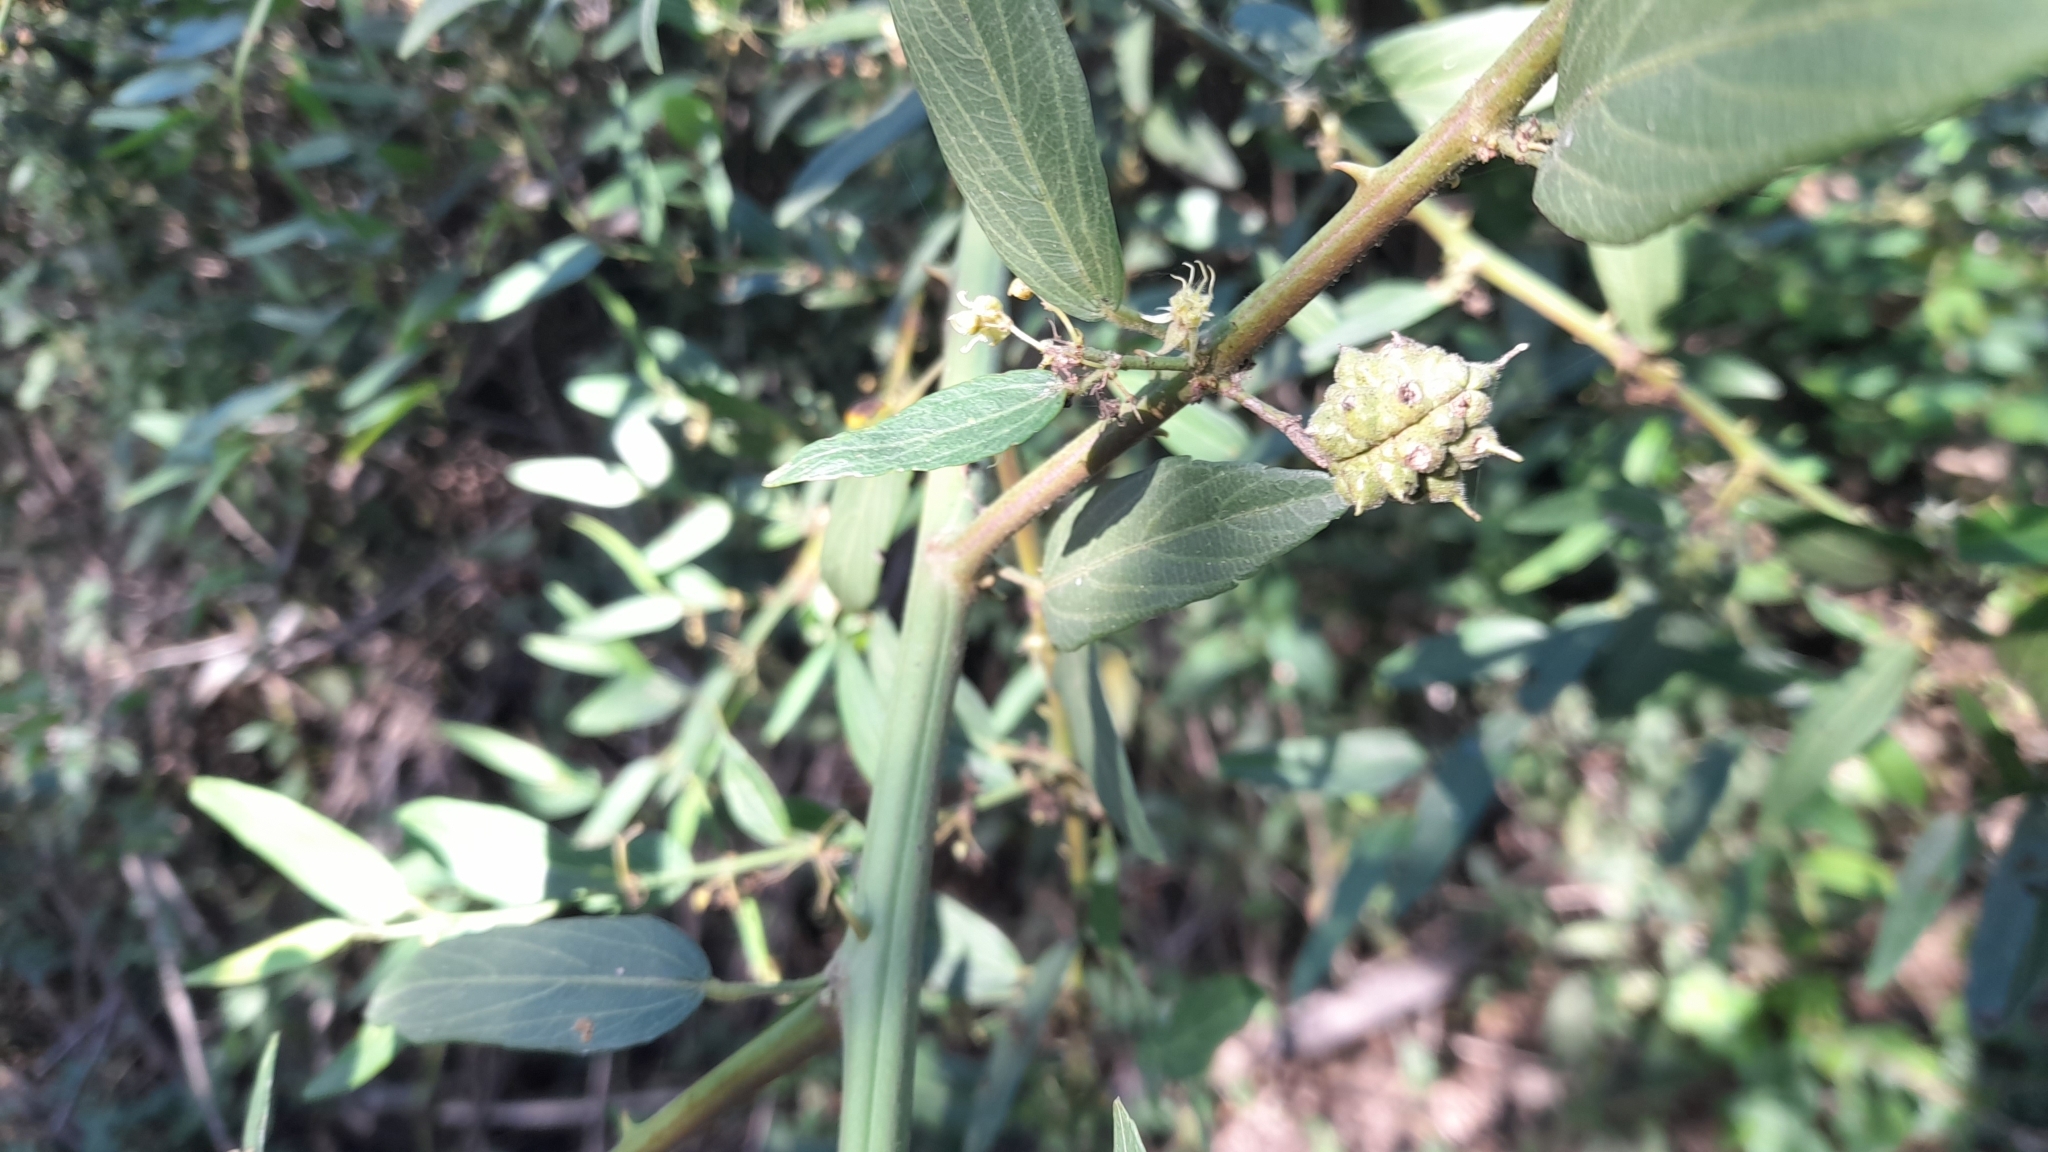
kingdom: Plantae
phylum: Tracheophyta
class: Magnoliopsida
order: Malvales
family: Malvaceae
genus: Byttneria
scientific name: Byttneria filipes
